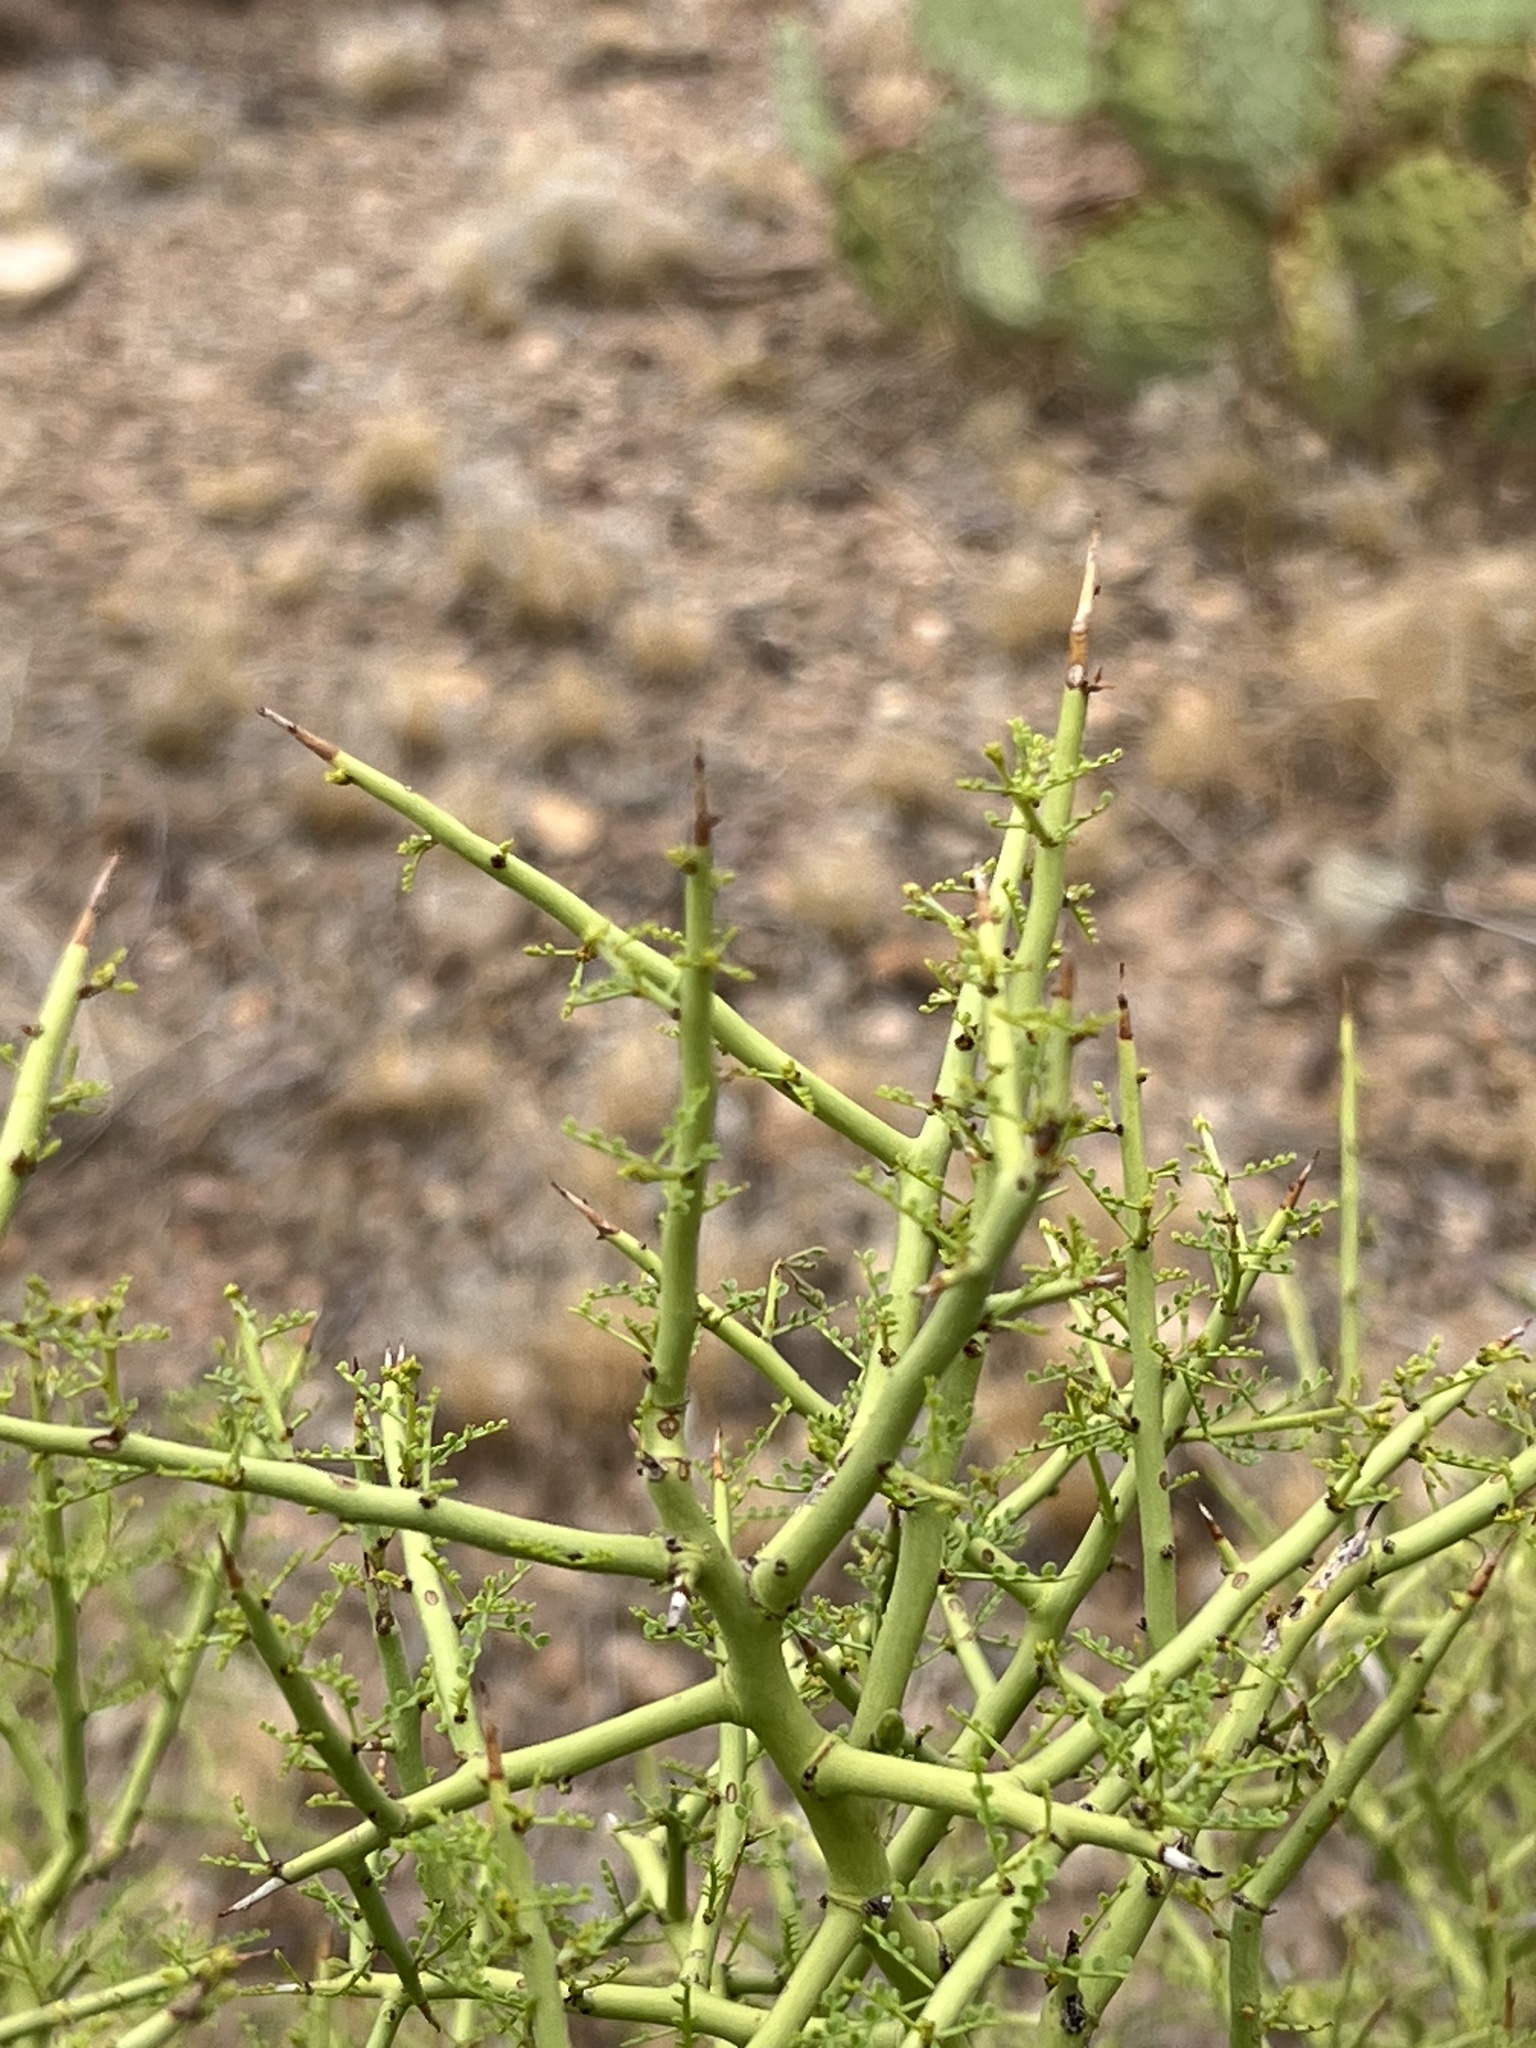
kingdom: Plantae
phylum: Tracheophyta
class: Magnoliopsida
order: Fabales
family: Fabaceae
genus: Parkinsonia
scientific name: Parkinsonia microphylla
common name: Yellow paloverde
